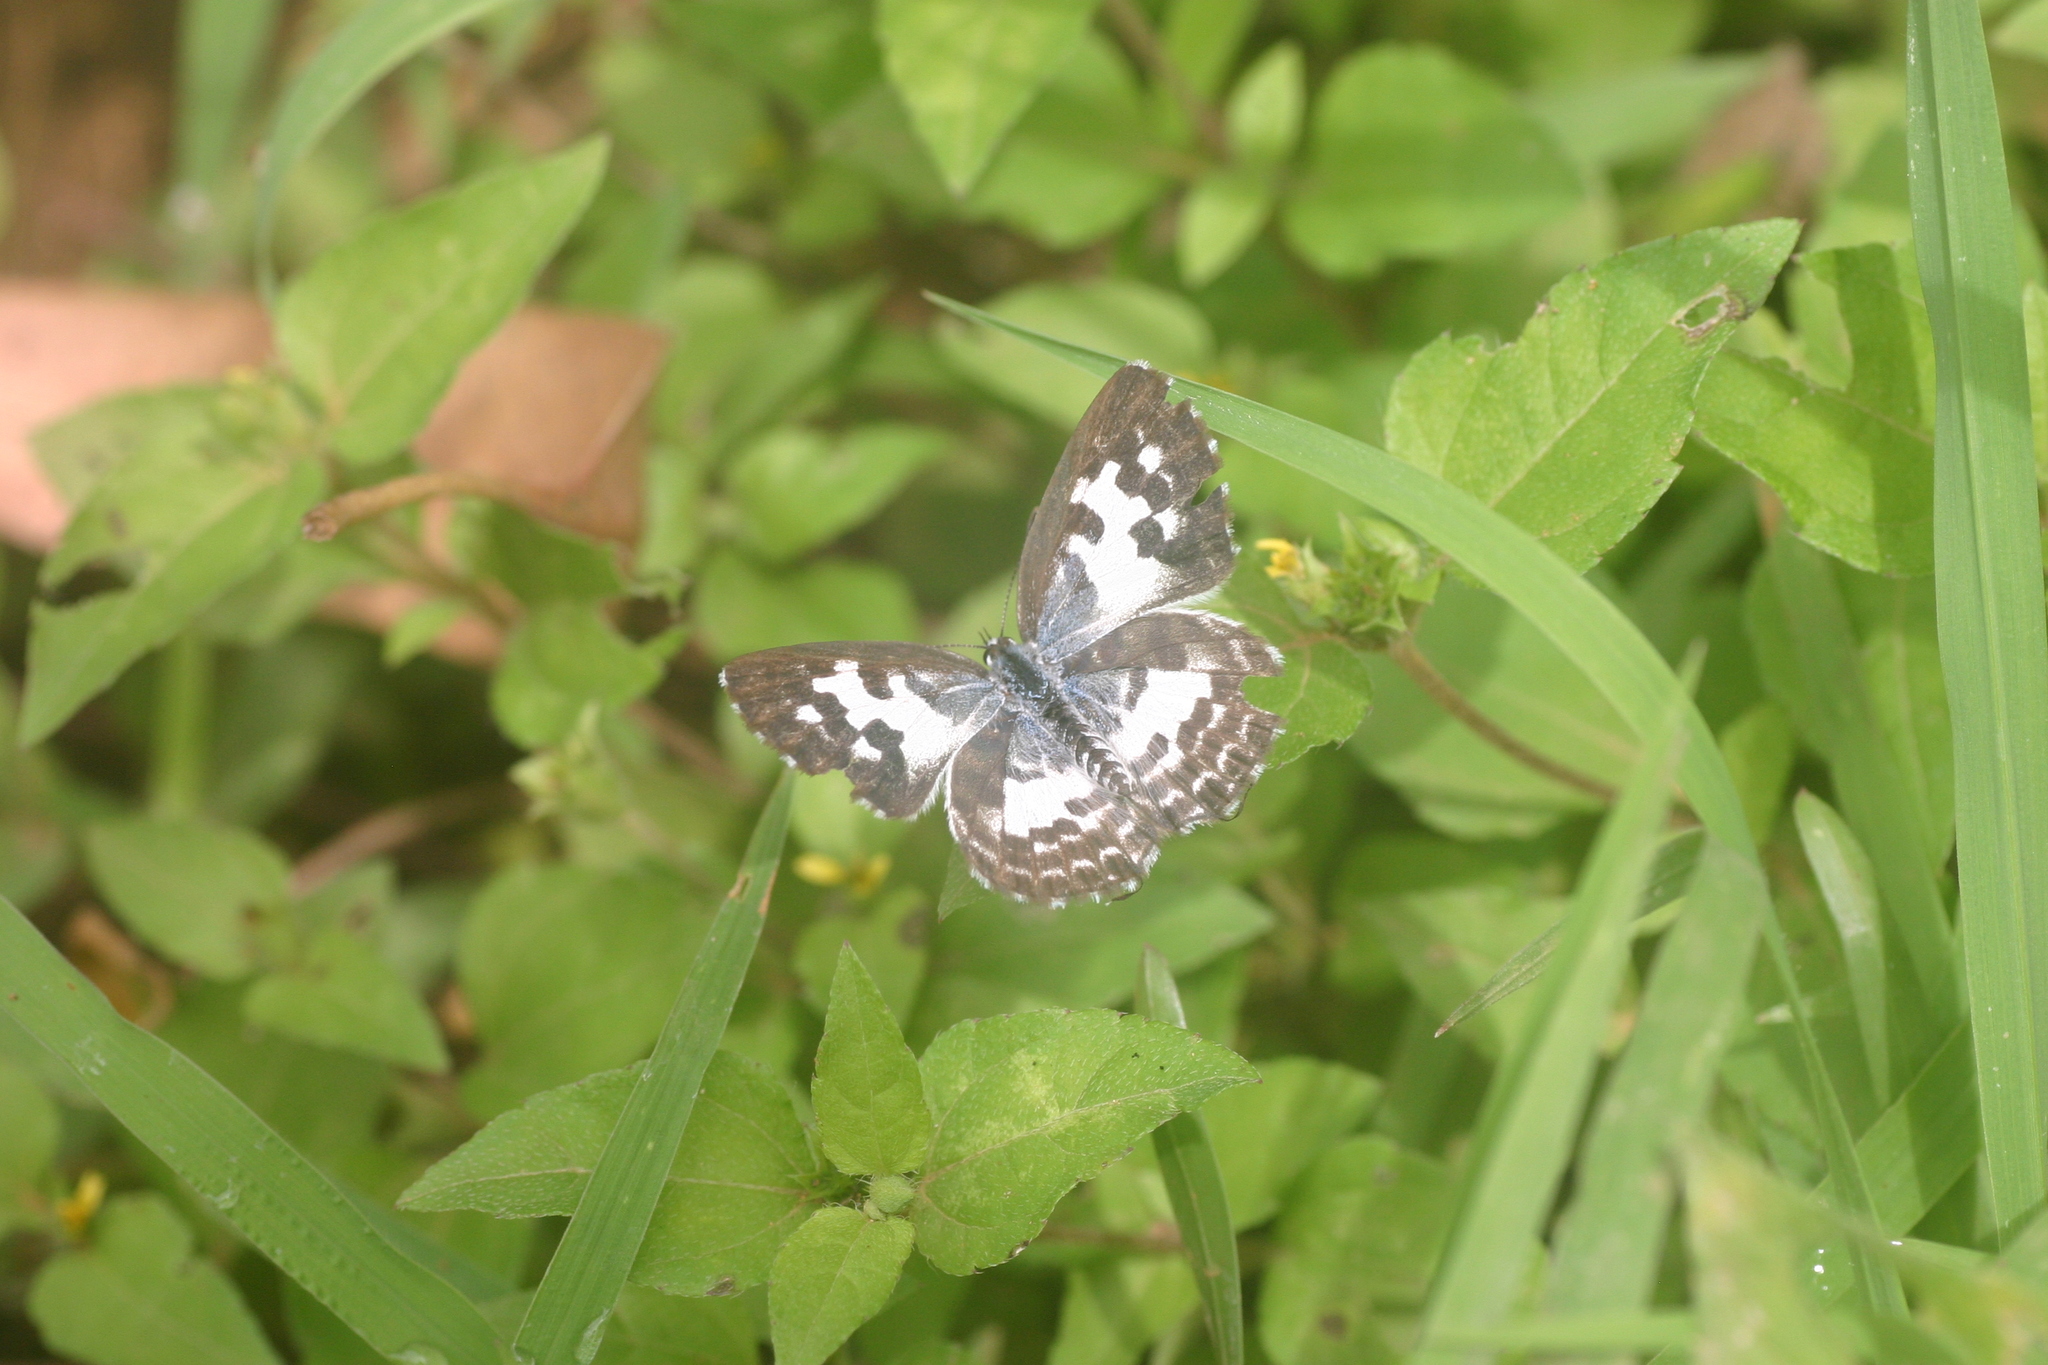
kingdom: Animalia
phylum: Arthropoda
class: Insecta
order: Lepidoptera
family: Lycaenidae
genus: Castalius
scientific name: Castalius rosimon
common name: Common pierrot
